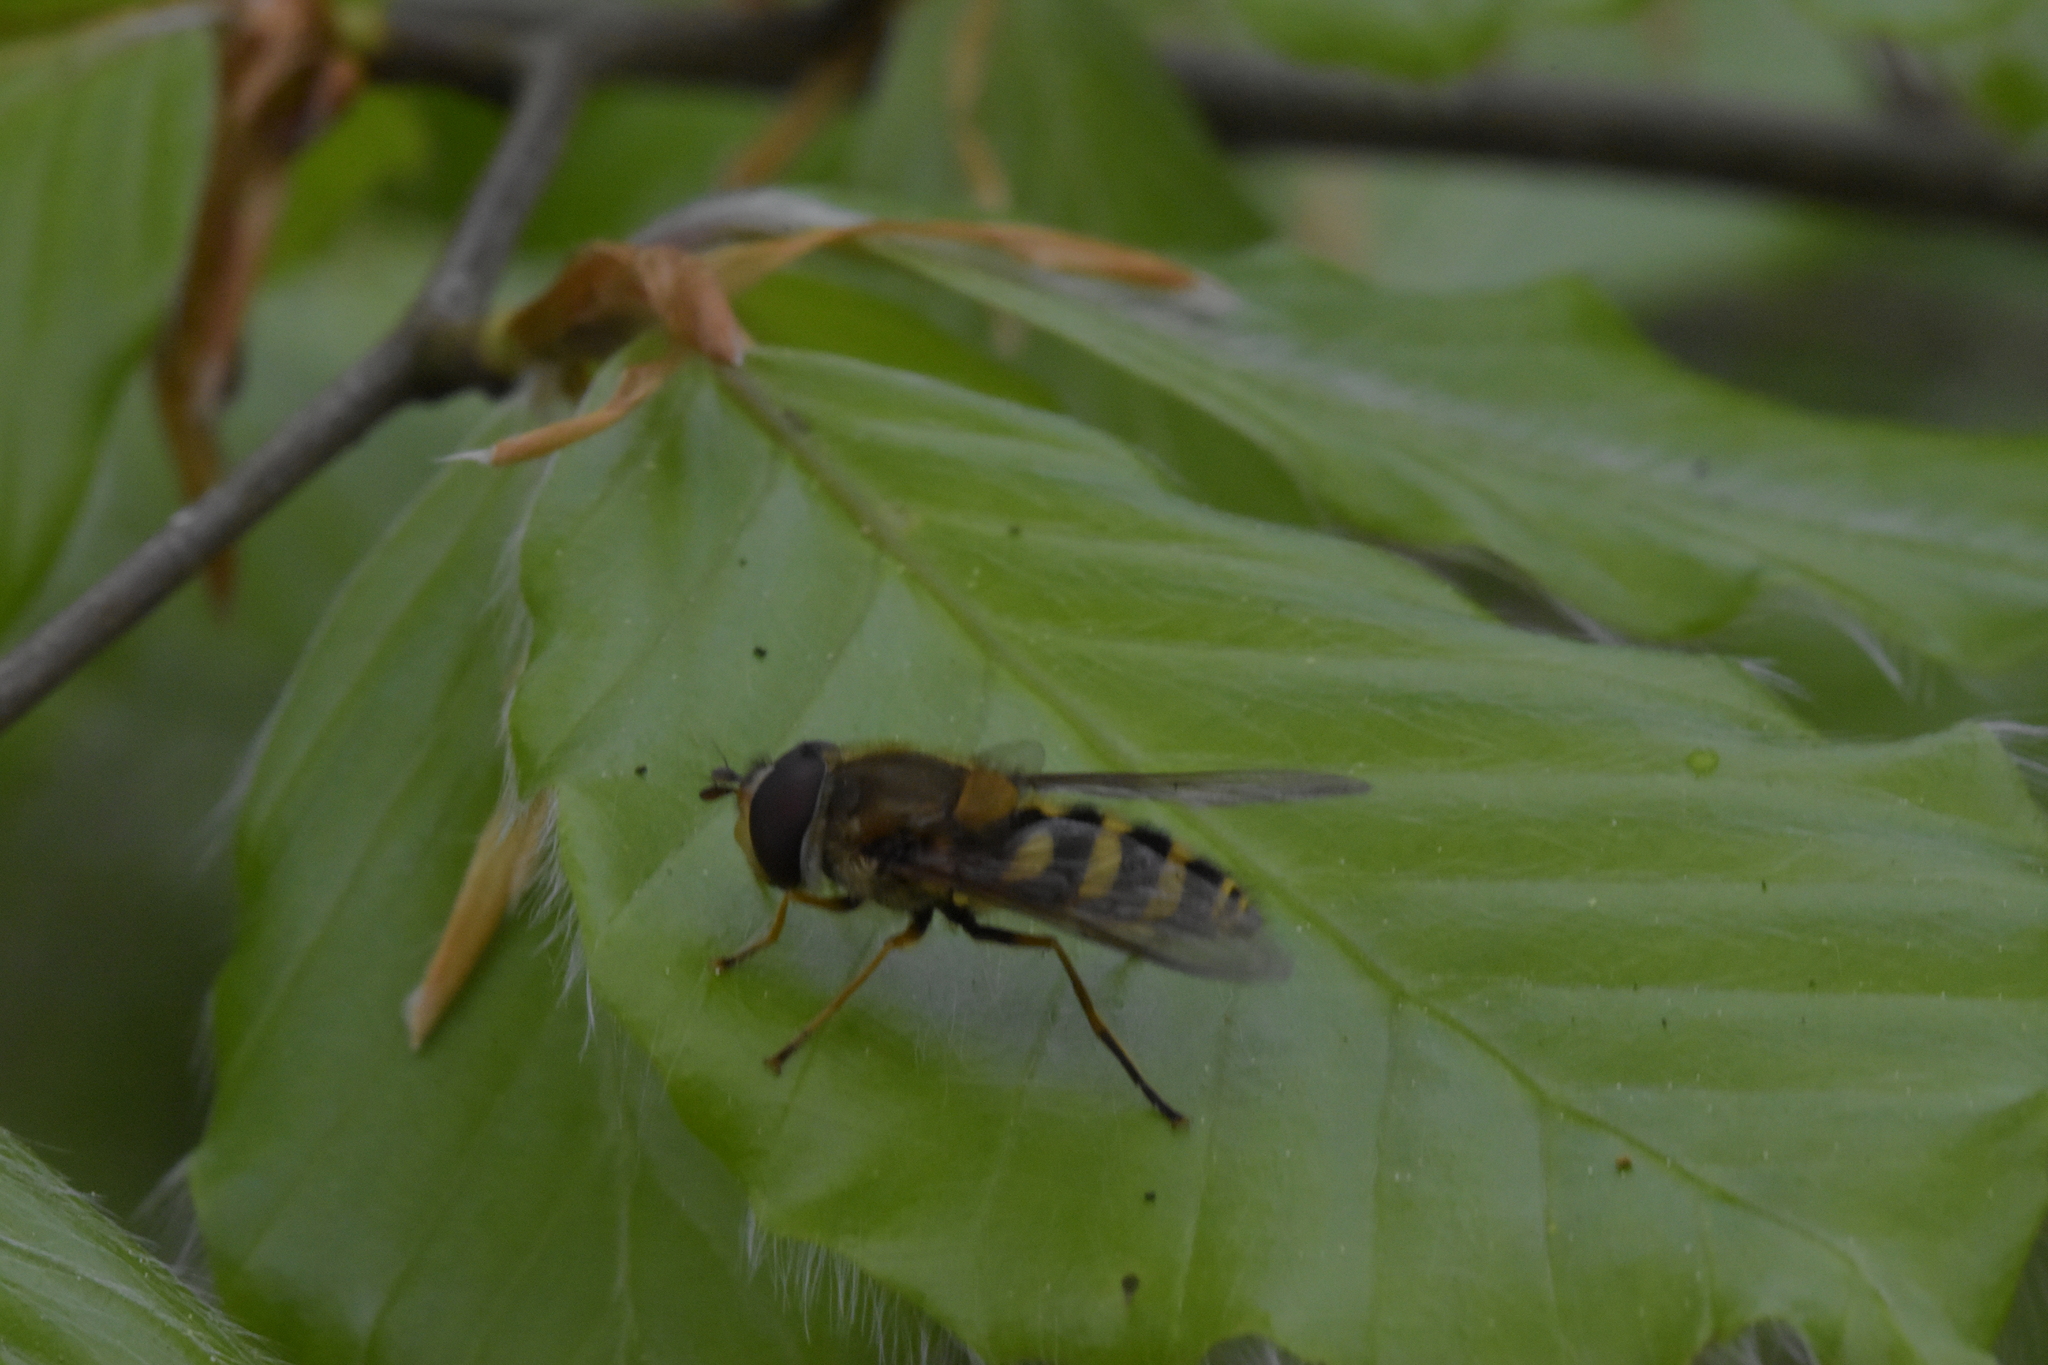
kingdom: Animalia
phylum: Arthropoda
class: Insecta
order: Diptera
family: Syrphidae
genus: Syrphus
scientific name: Syrphus
